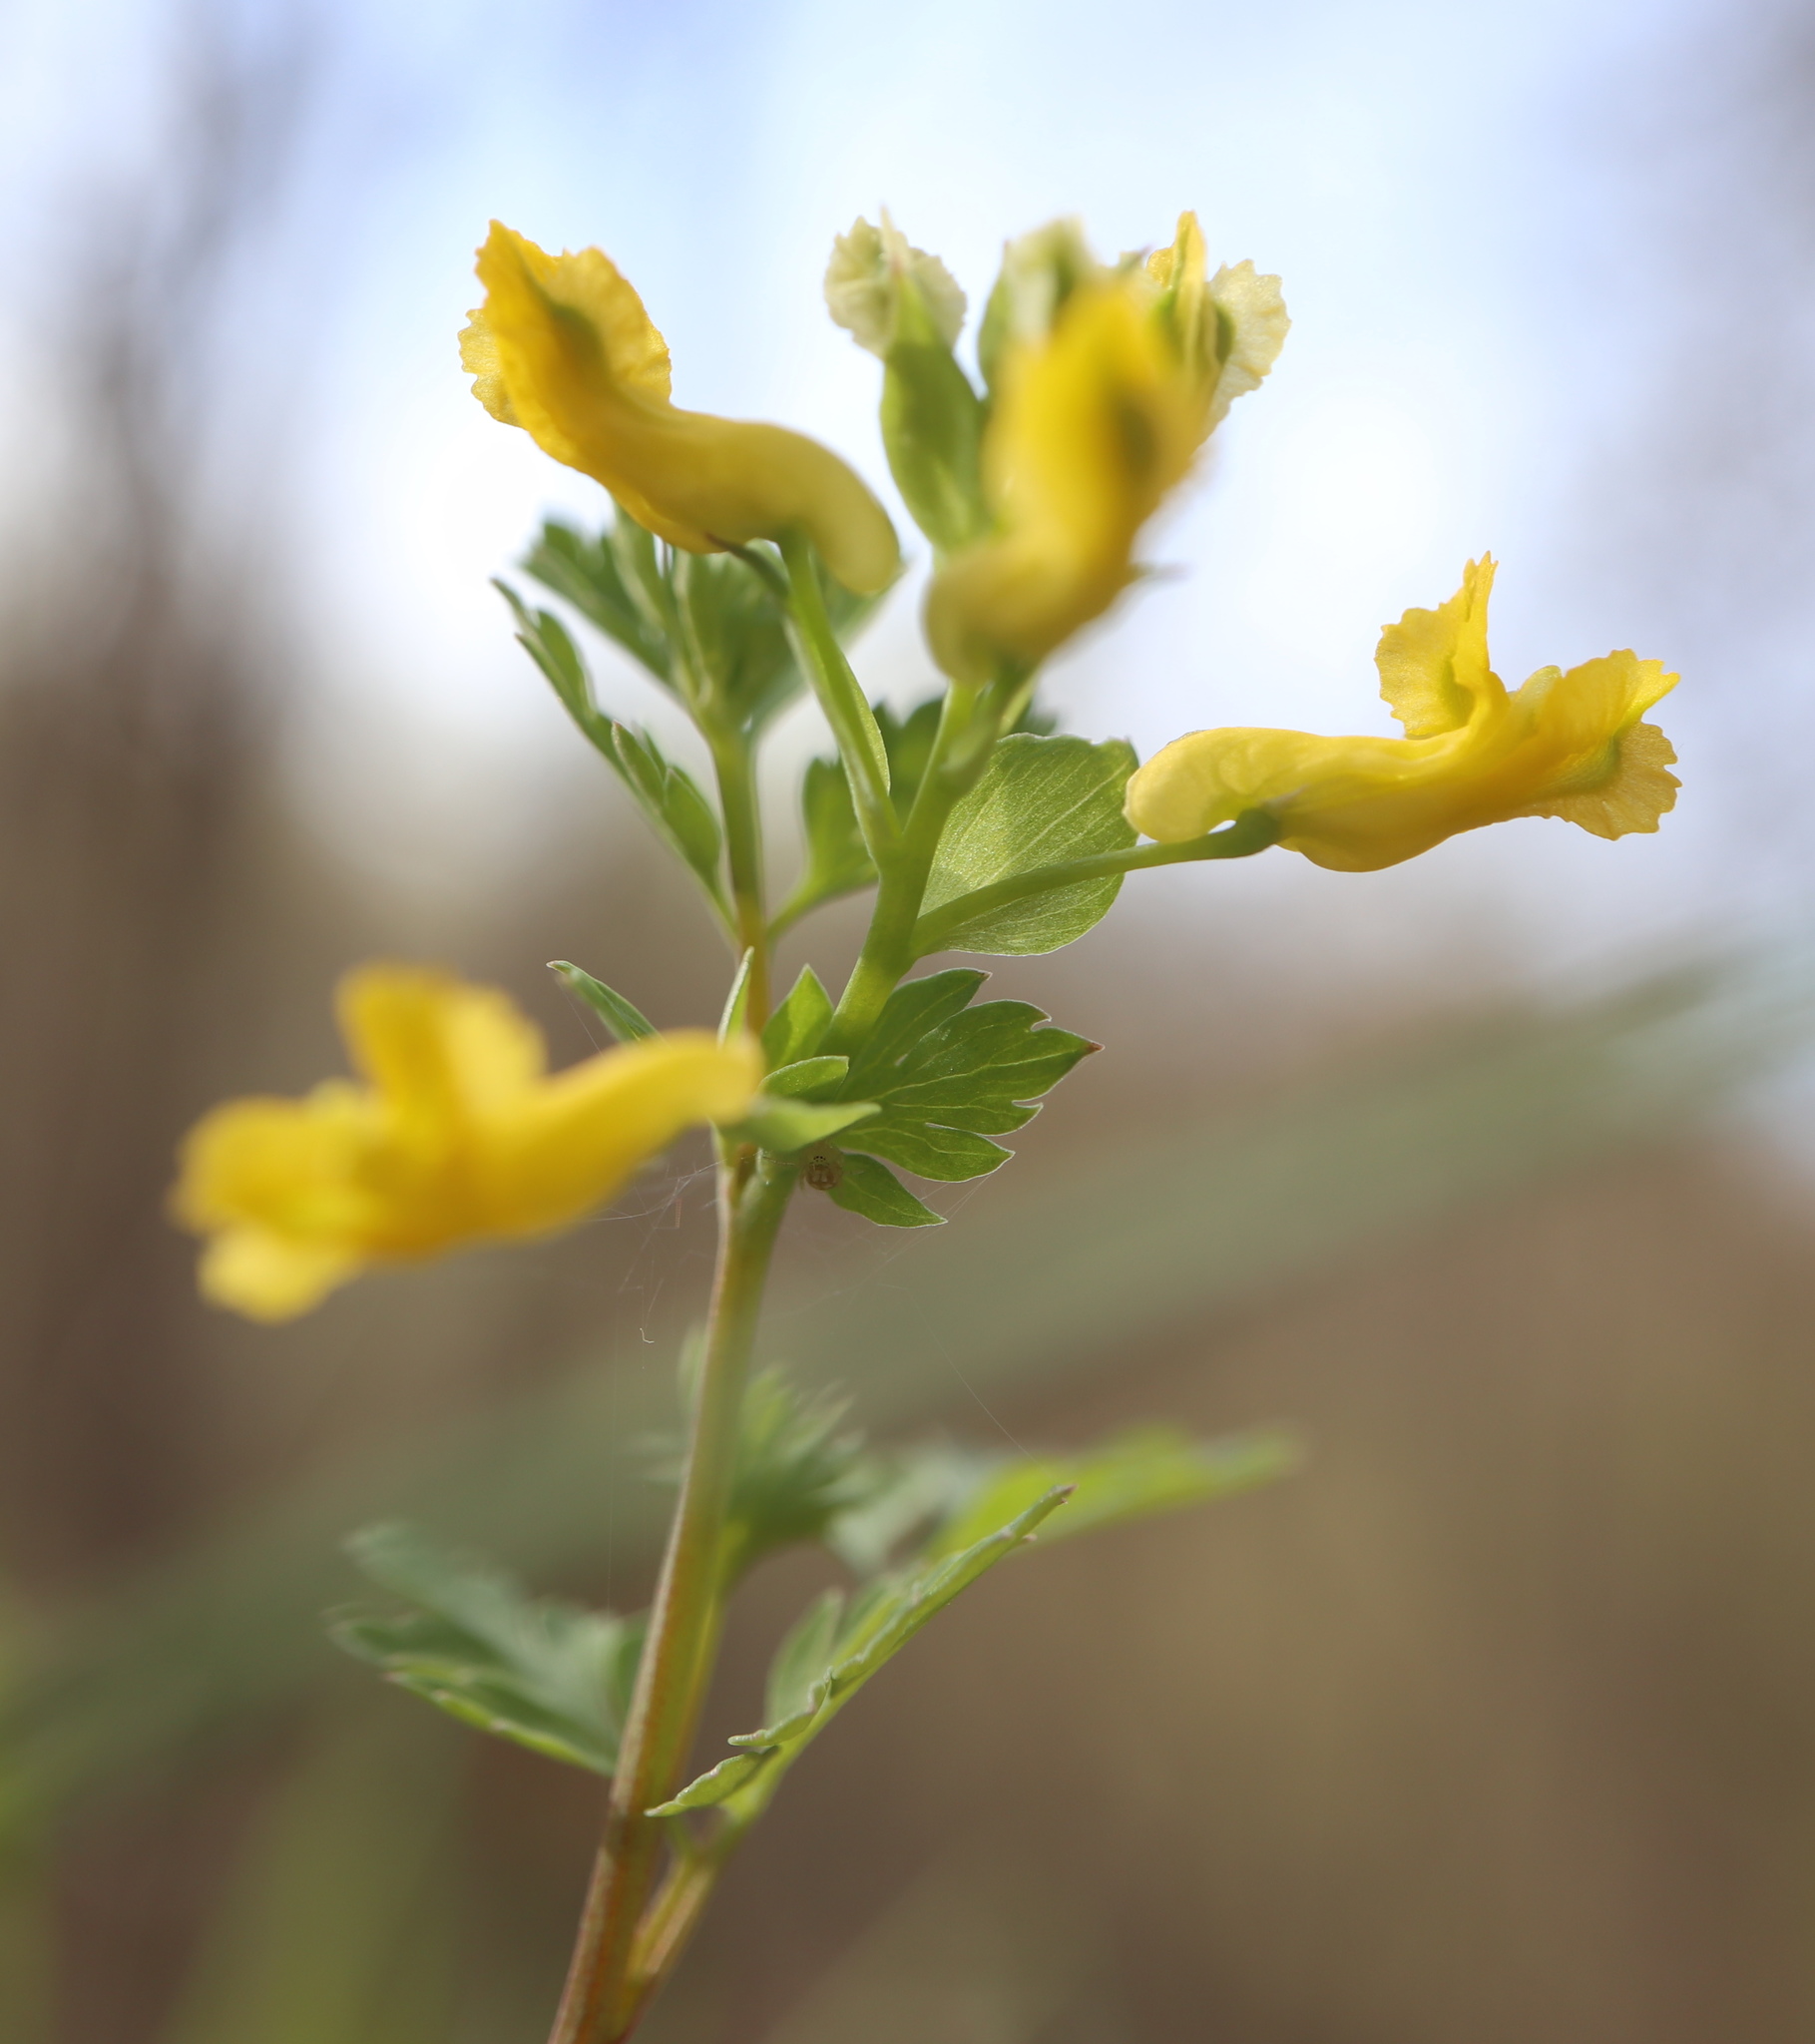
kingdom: Plantae
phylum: Tracheophyta
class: Magnoliopsida
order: Ranunculales
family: Papaveraceae
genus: Corydalis
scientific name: Corydalis flavula
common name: Yellow corydalis
